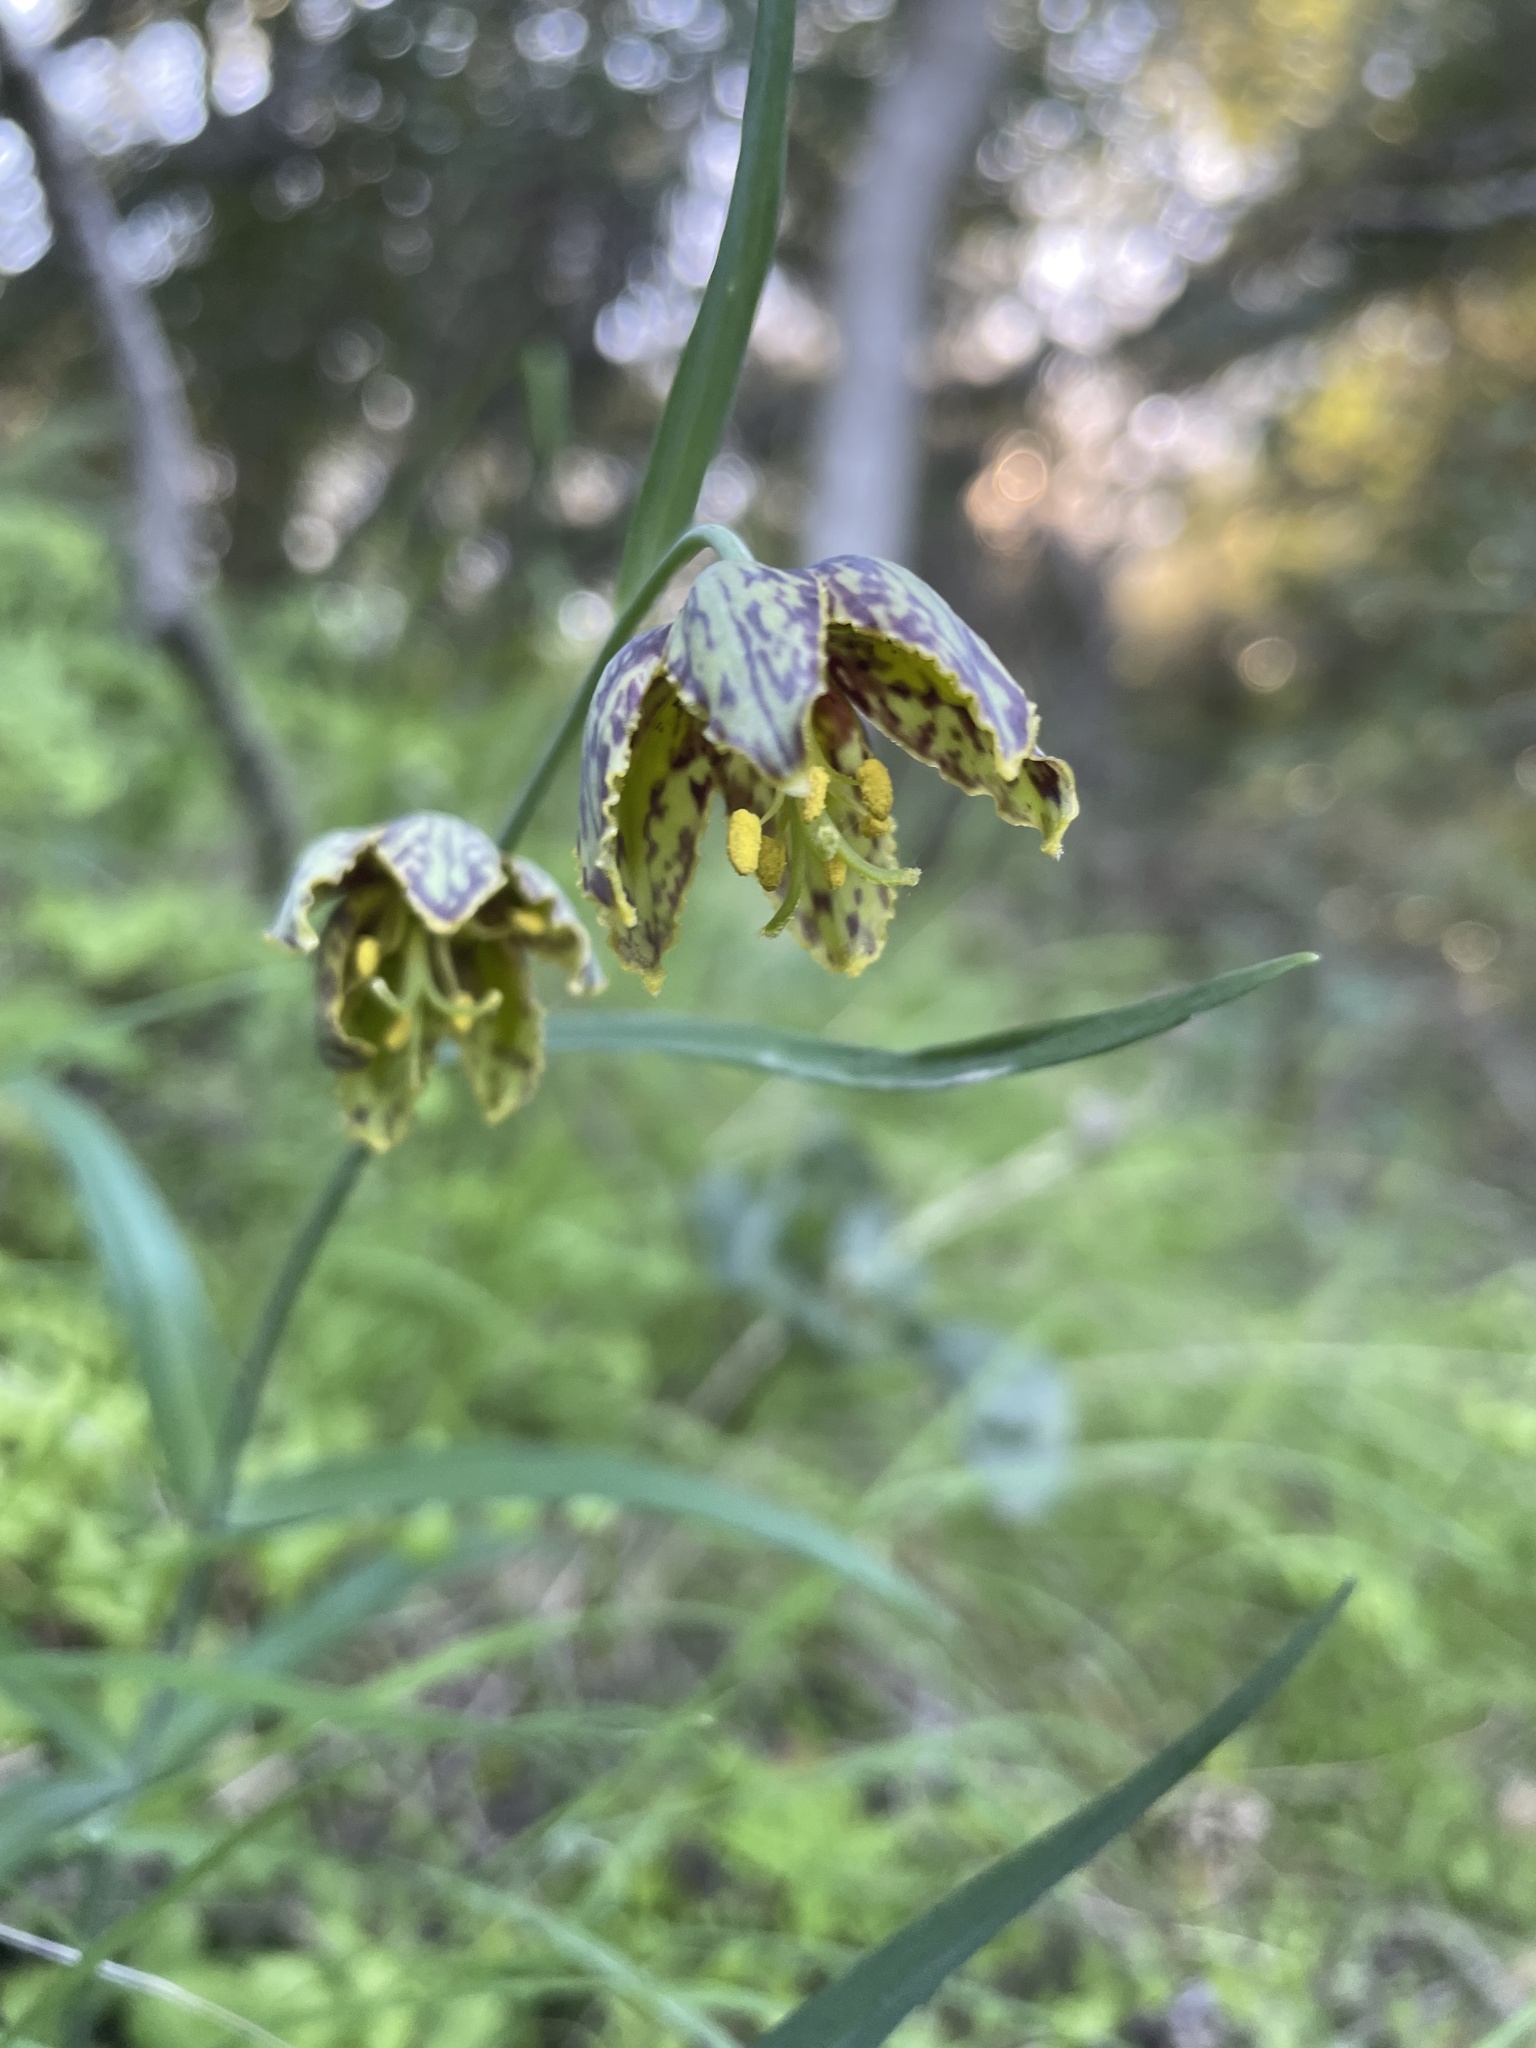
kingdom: Plantae
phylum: Tracheophyta
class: Liliopsida
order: Liliales
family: Liliaceae
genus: Fritillaria
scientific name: Fritillaria affinis
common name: Ojai fritillary
